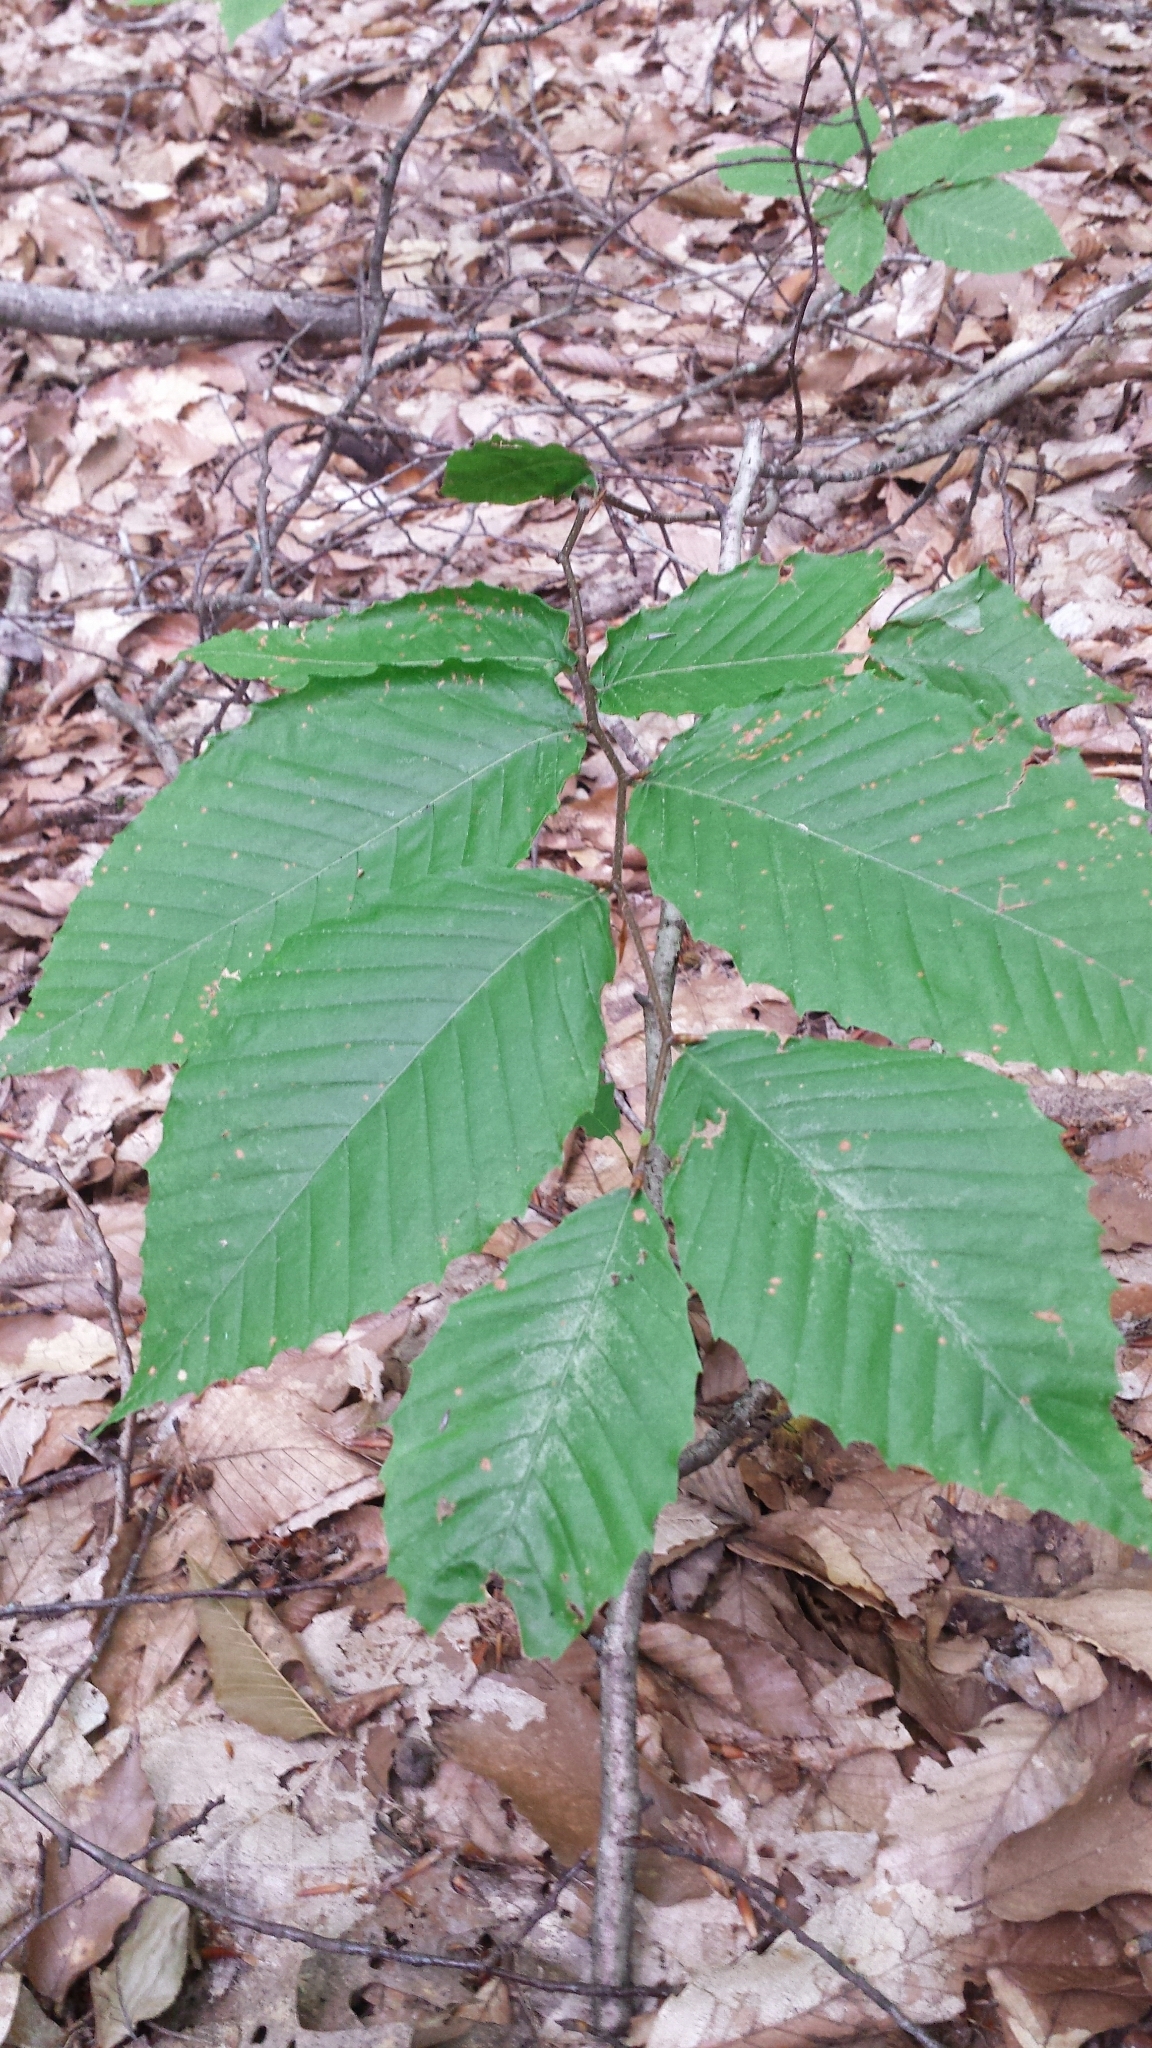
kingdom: Plantae
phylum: Tracheophyta
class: Magnoliopsida
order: Fagales
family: Fagaceae
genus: Fagus
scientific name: Fagus grandifolia
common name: American beech
